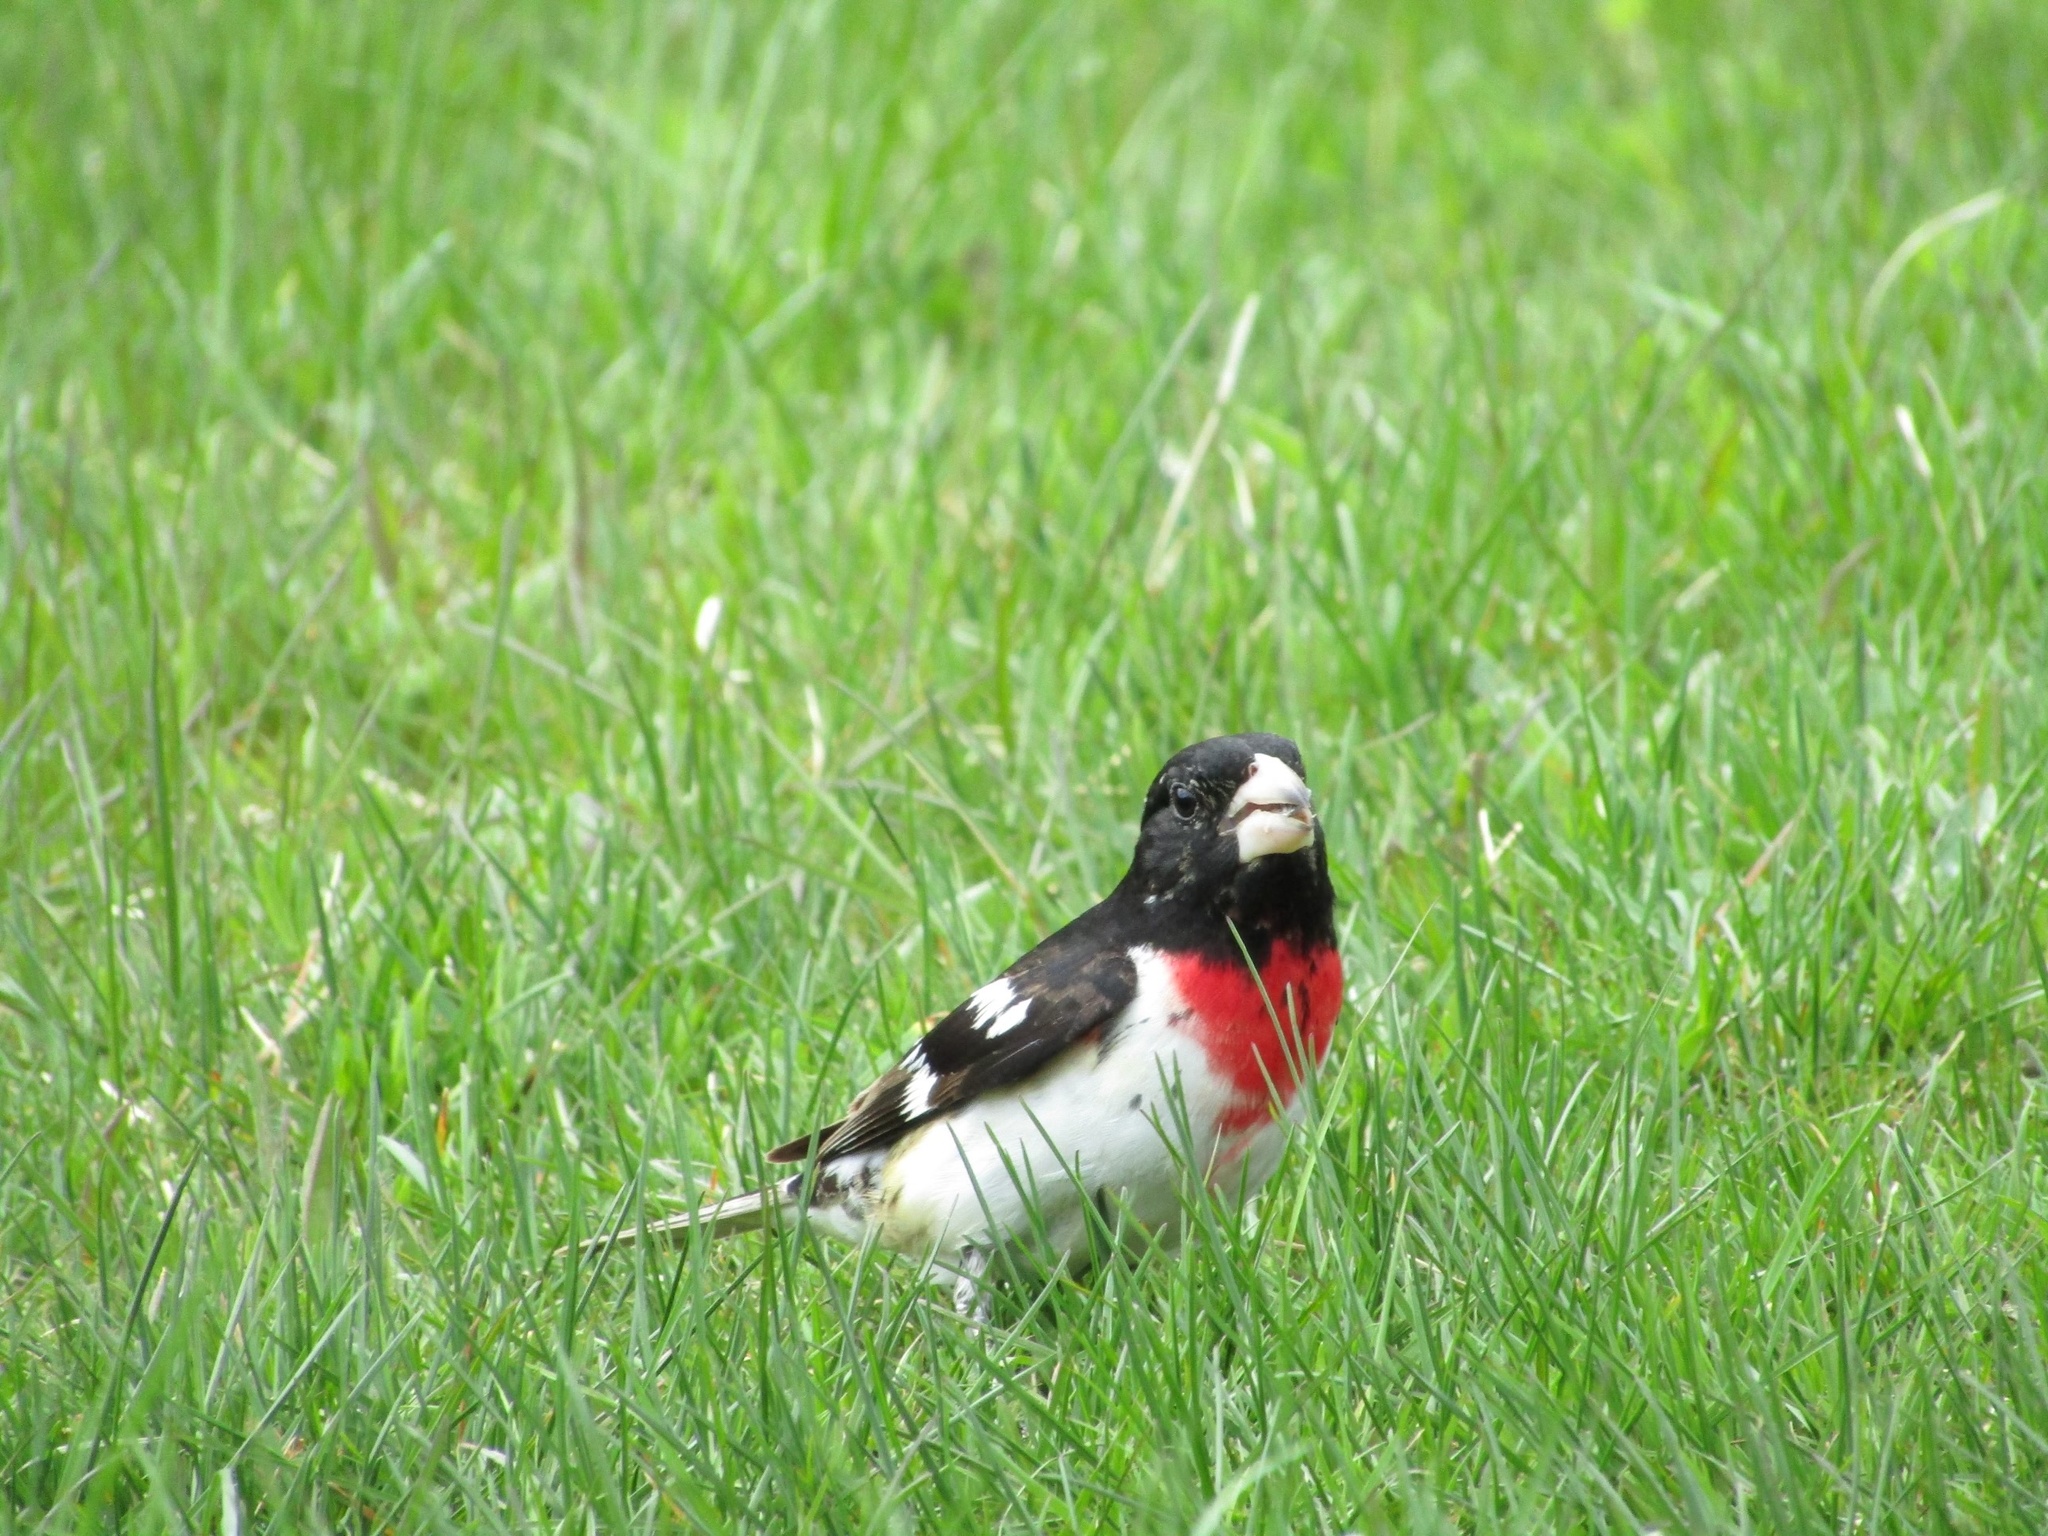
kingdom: Animalia
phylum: Chordata
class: Aves
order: Passeriformes
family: Cardinalidae
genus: Pheucticus
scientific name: Pheucticus ludovicianus
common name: Rose-breasted grosbeak
